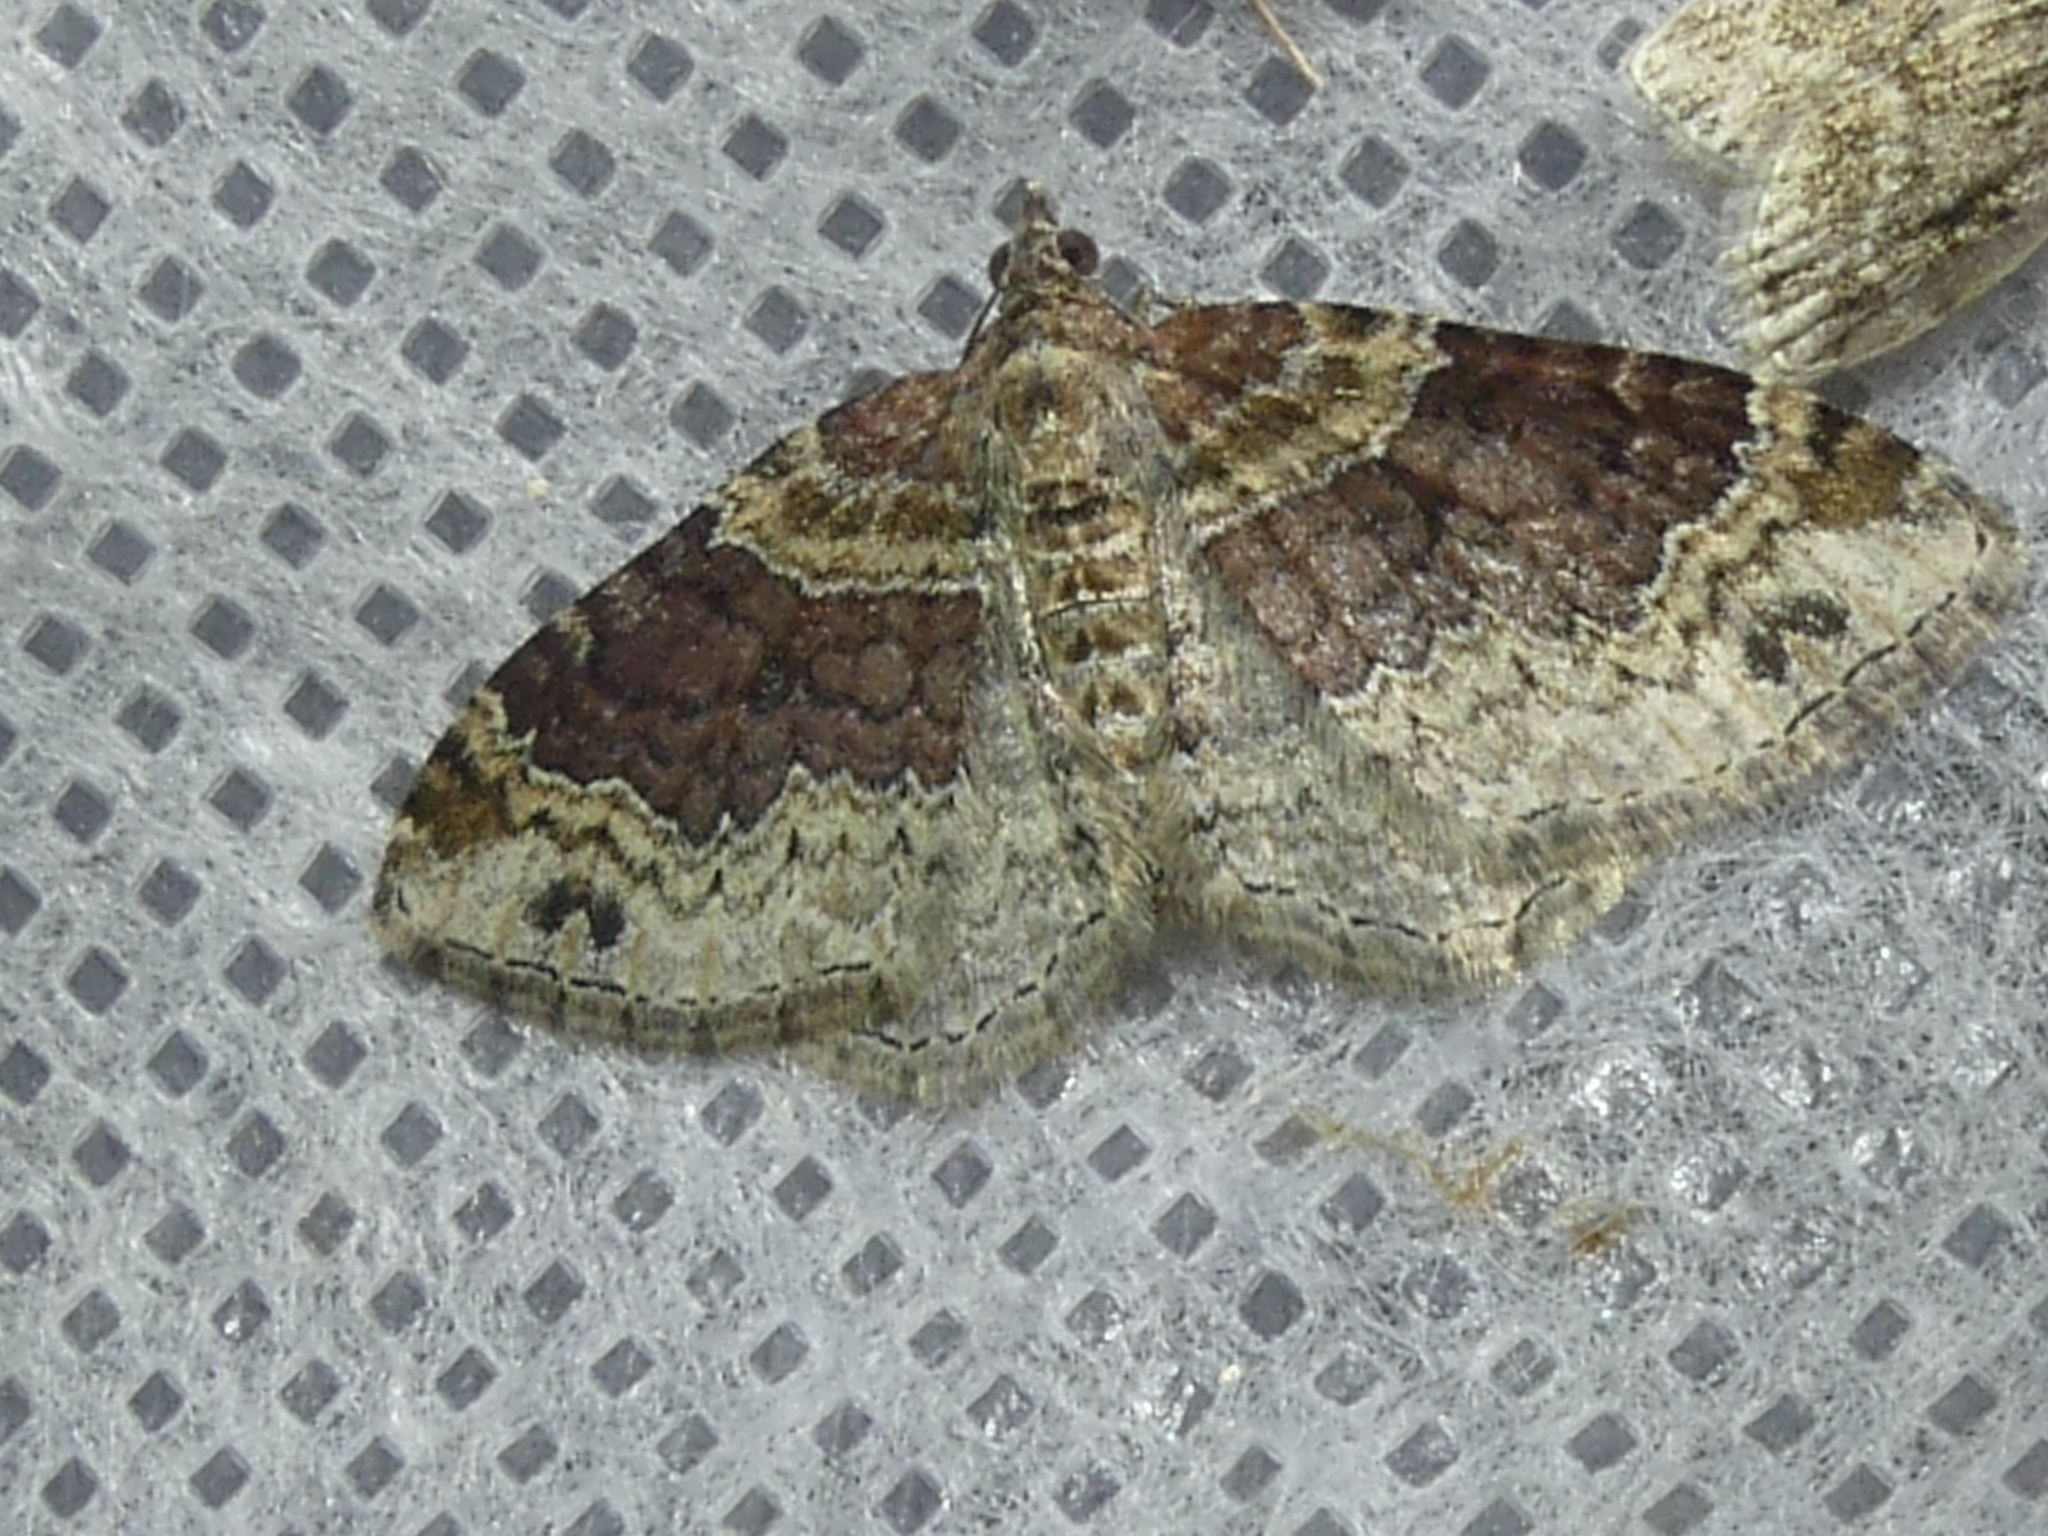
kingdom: Animalia
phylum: Arthropoda
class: Insecta
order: Lepidoptera
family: Geometridae
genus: Xanthorhoe
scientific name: Xanthorhoe ferrugata
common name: Dark-barred twin-spot carpet
